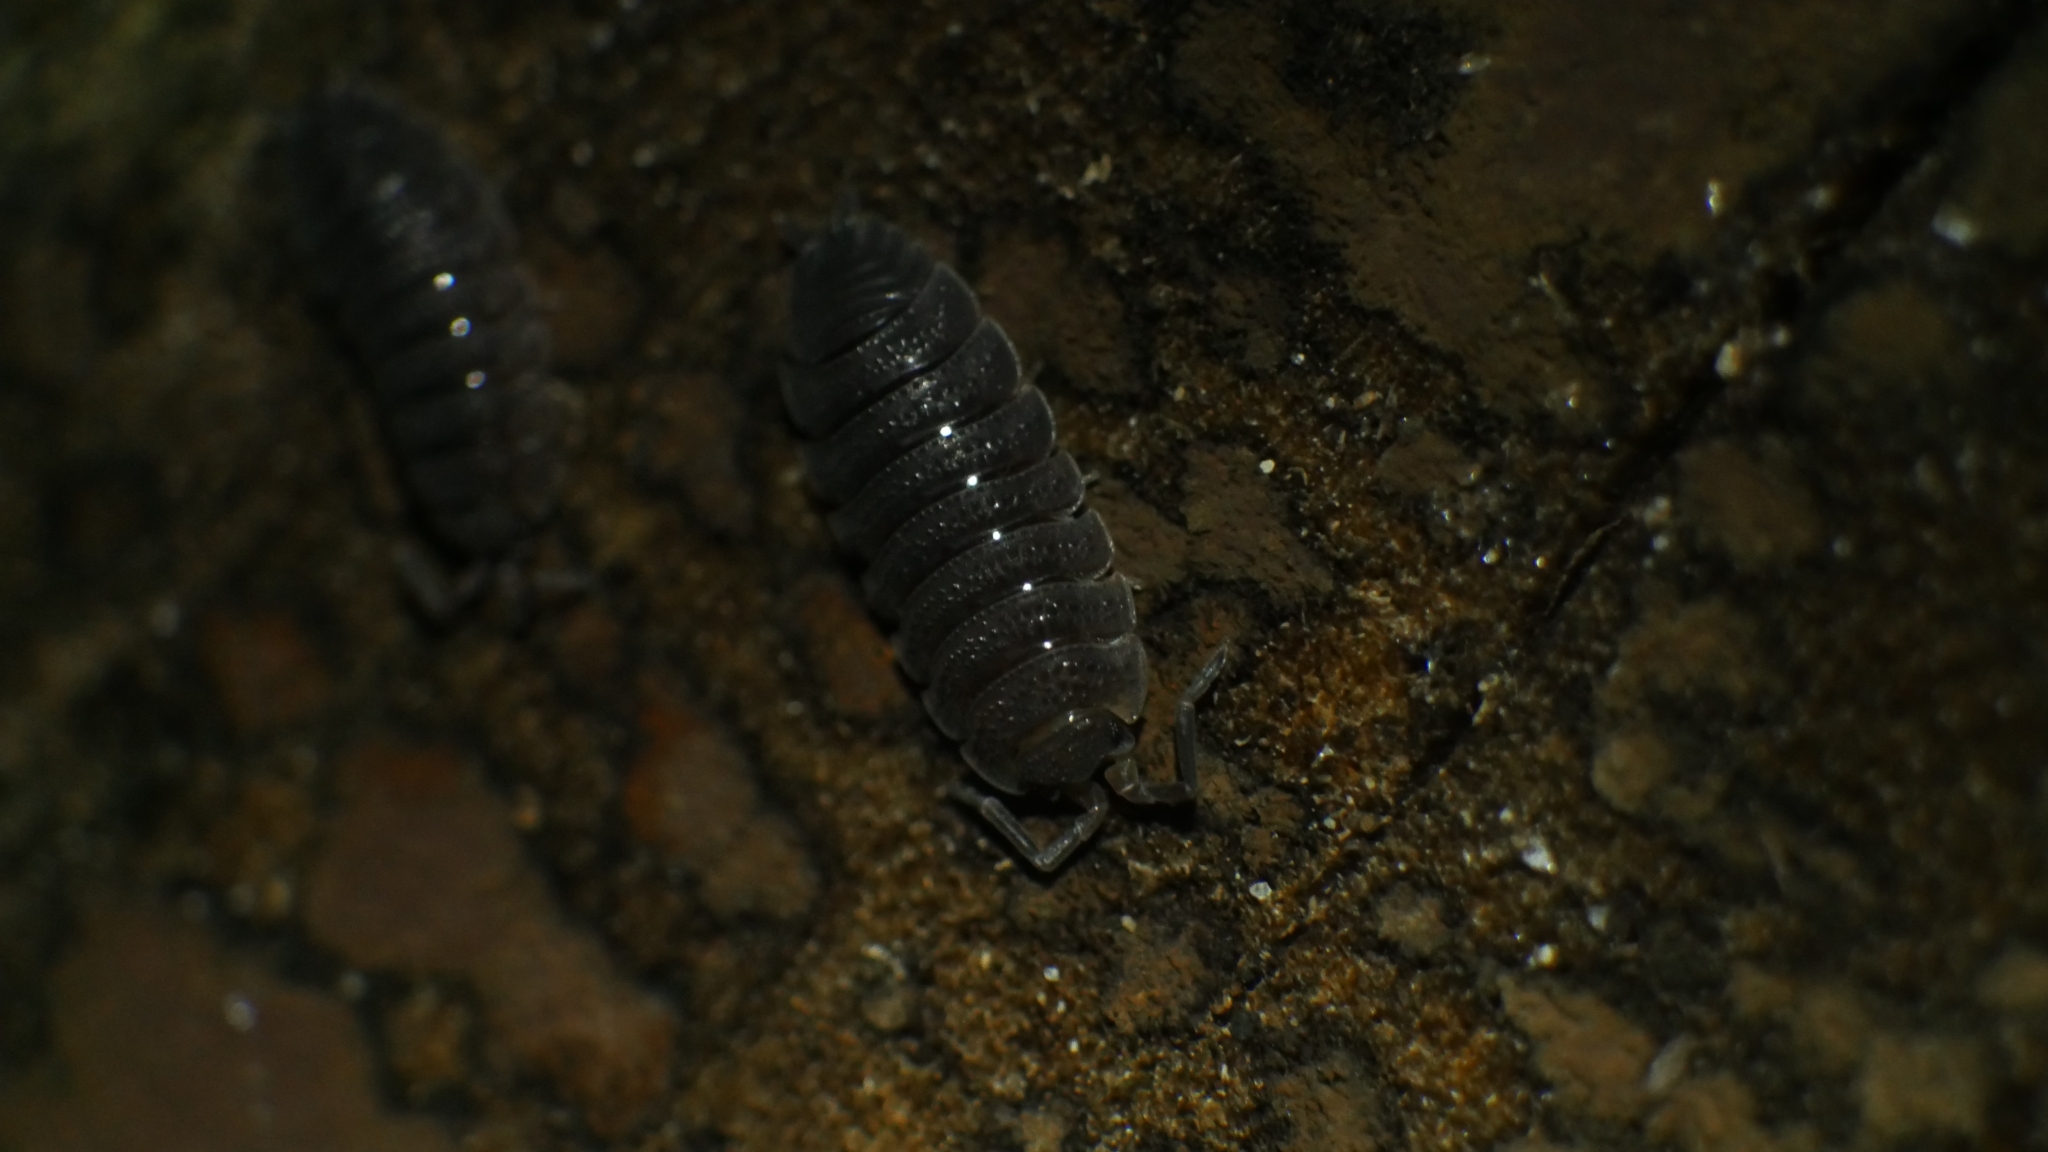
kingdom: Animalia
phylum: Arthropoda
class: Malacostraca
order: Isopoda
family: Porcellionidae
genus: Porcellio
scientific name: Porcellio scaber
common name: Common rough woodlouse
